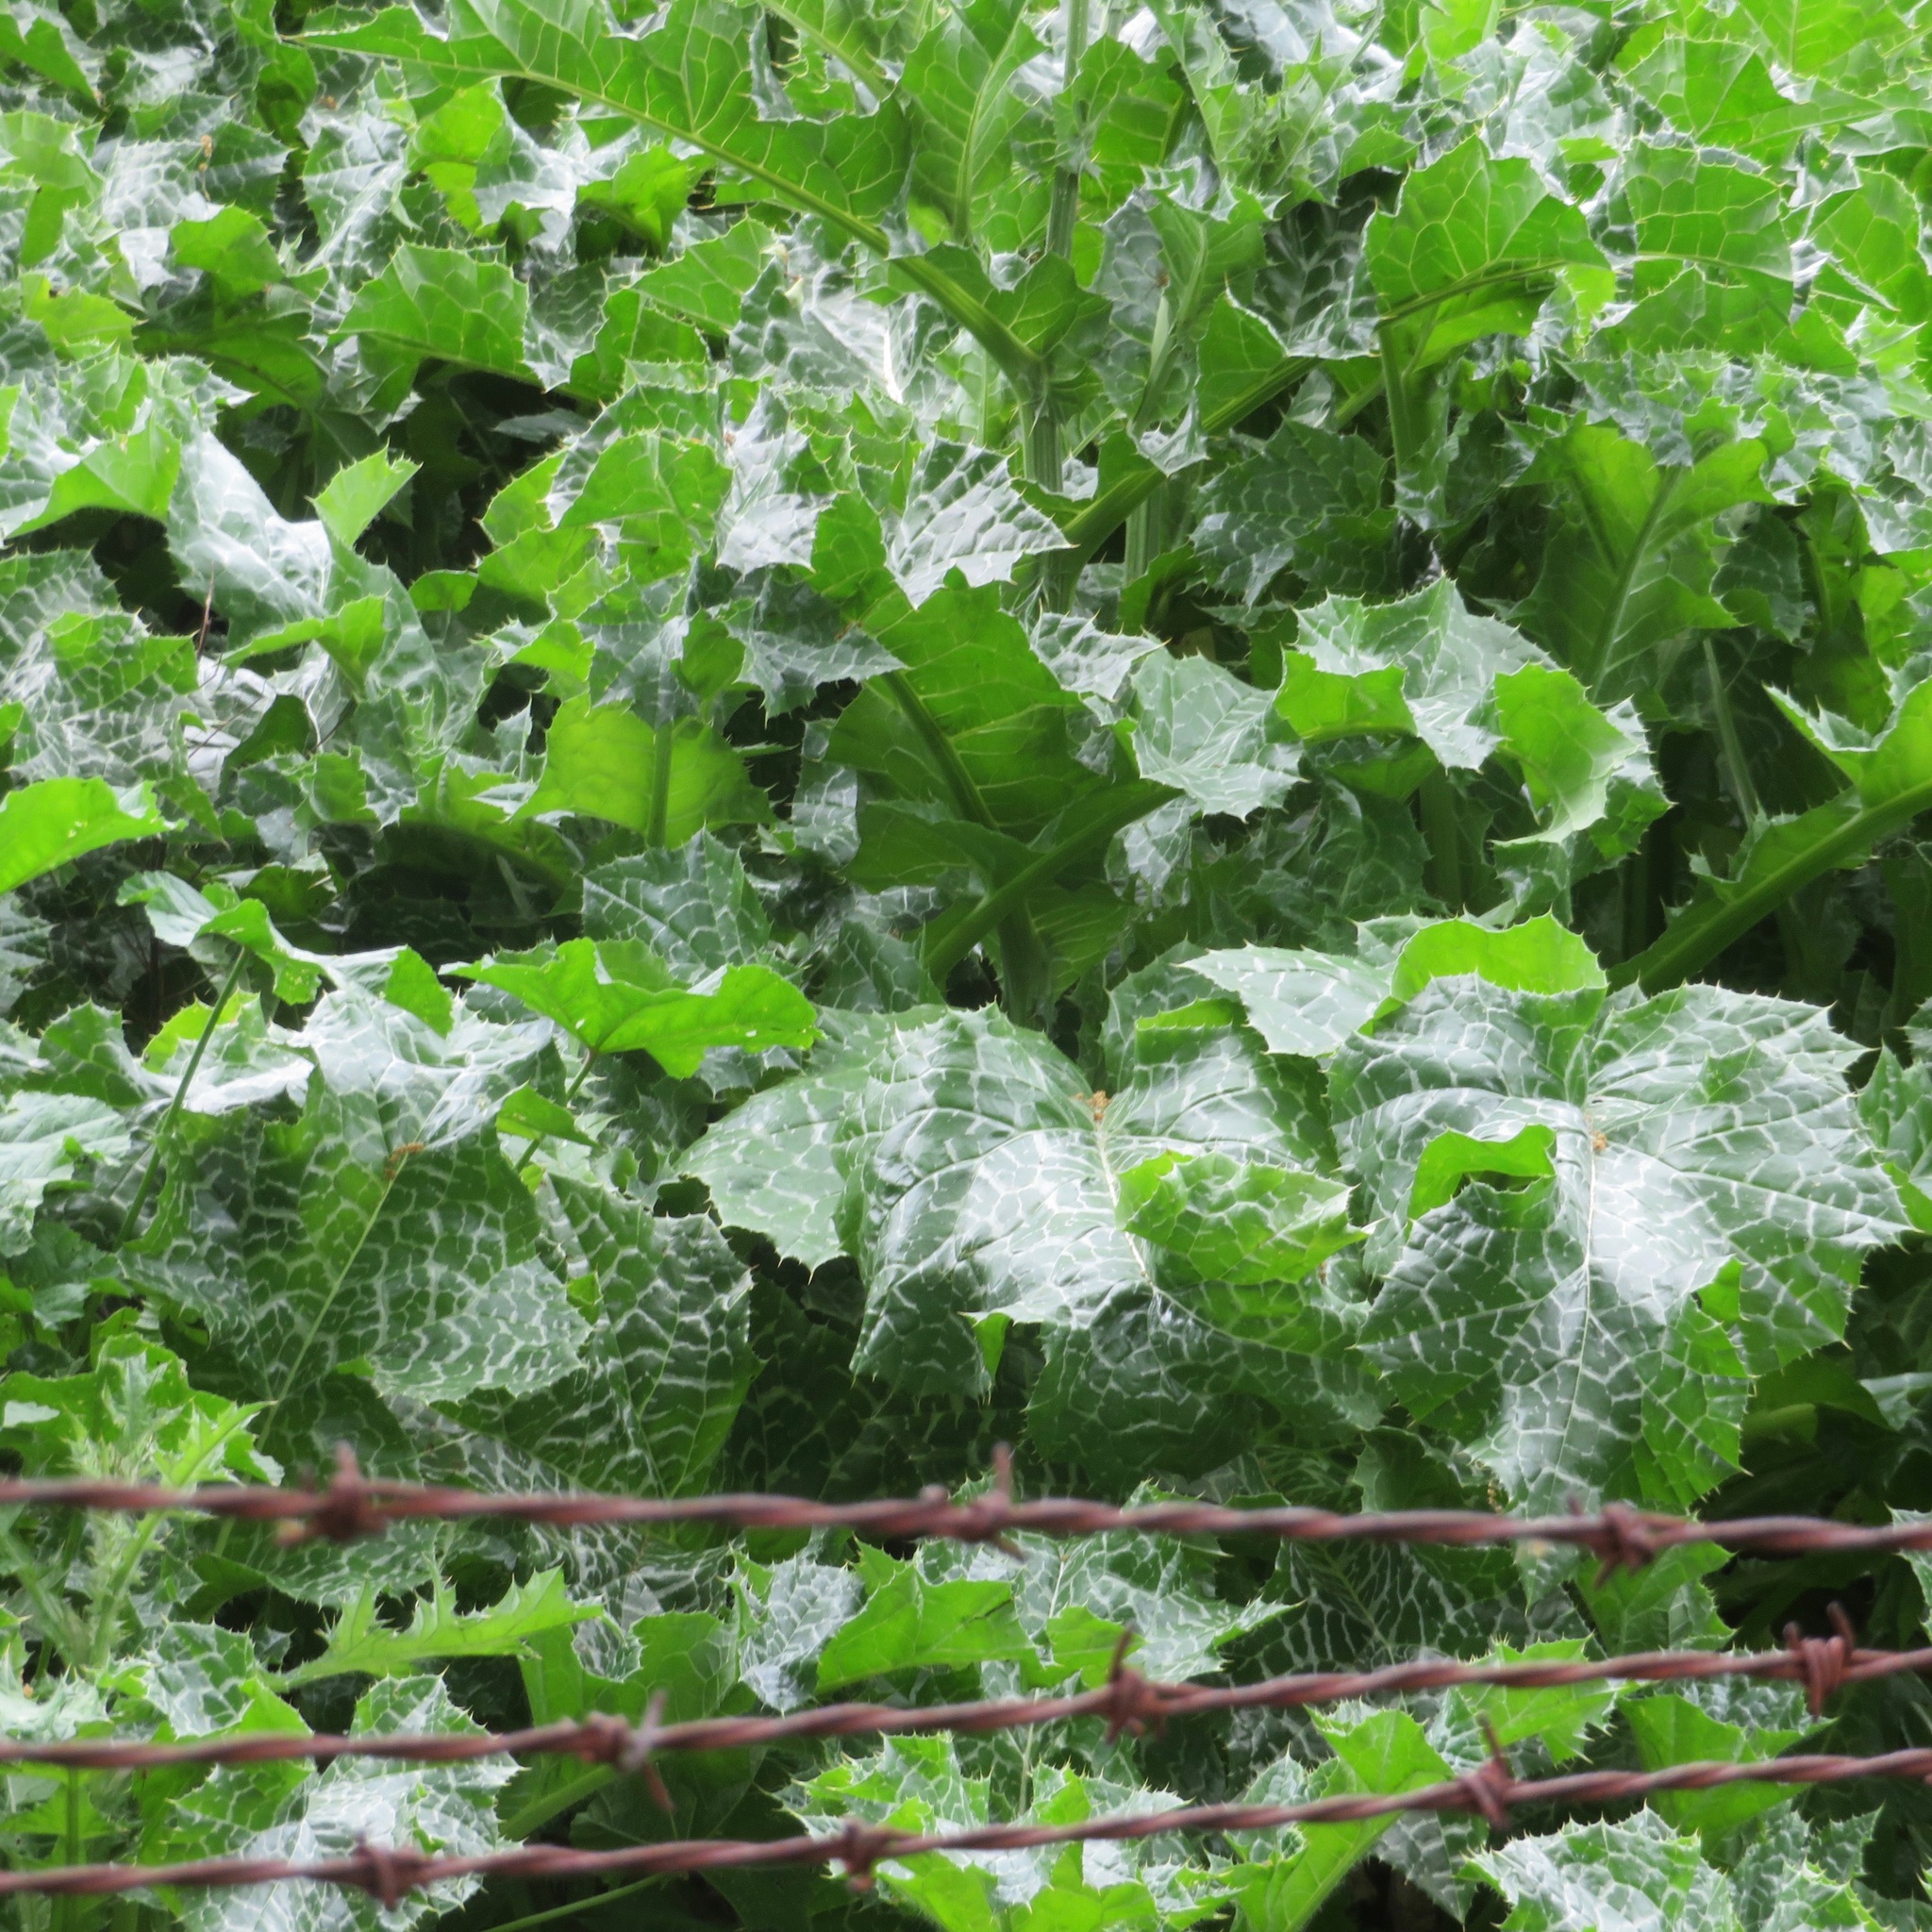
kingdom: Plantae
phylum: Tracheophyta
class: Magnoliopsida
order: Asterales
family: Asteraceae
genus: Silybum
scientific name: Silybum marianum
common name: Milk thistle
